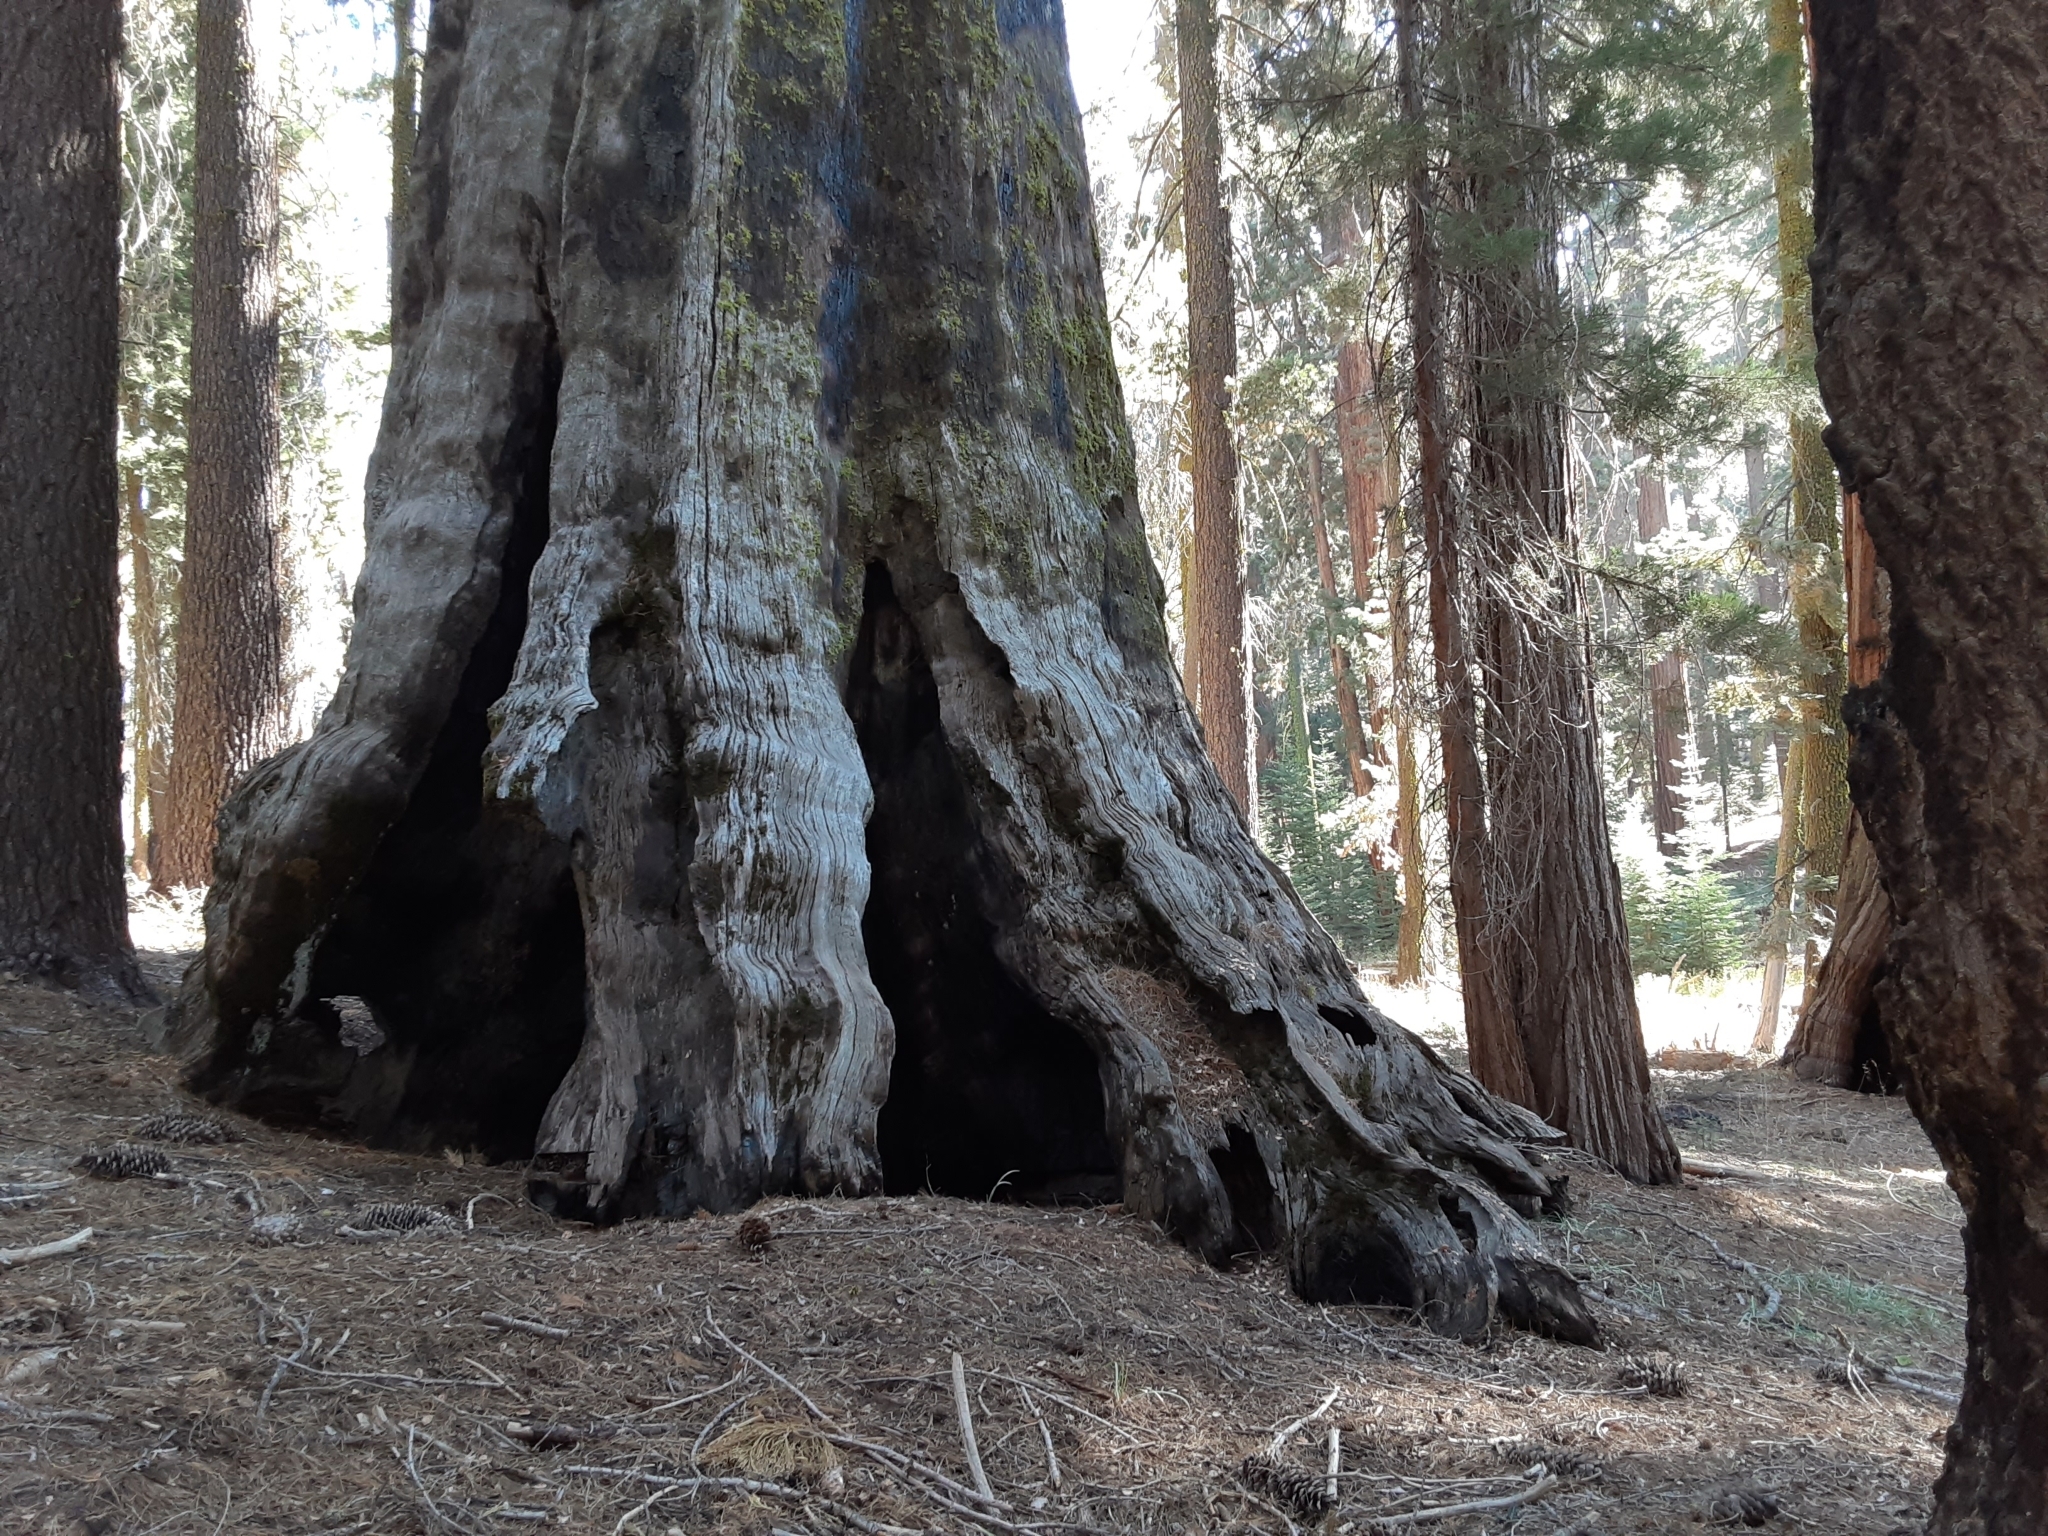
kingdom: Plantae
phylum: Tracheophyta
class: Pinopsida
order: Pinales
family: Cupressaceae
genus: Sequoiadendron
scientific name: Sequoiadendron giganteum
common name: Wellingtonia
